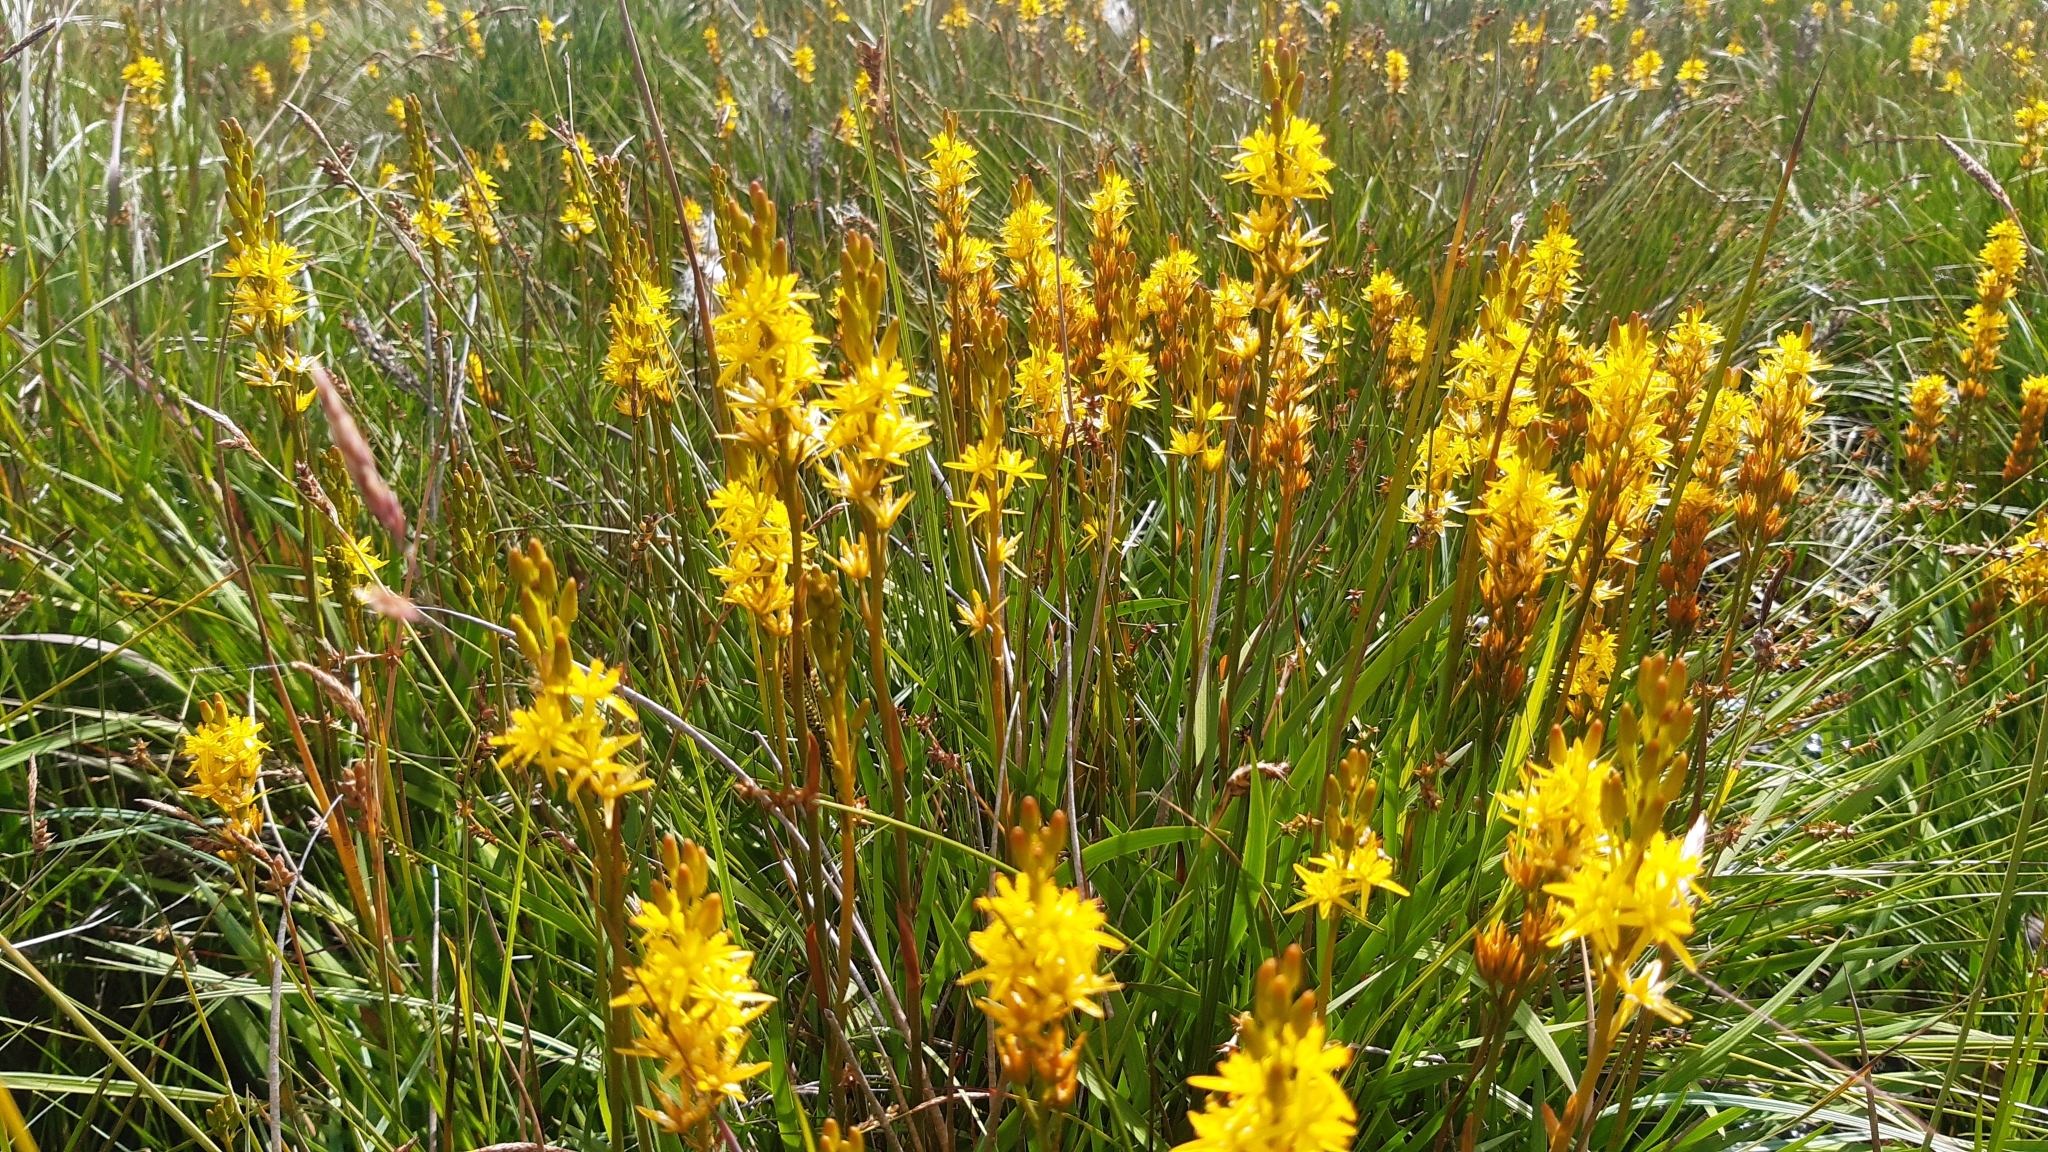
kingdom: Plantae
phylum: Tracheophyta
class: Liliopsida
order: Dioscoreales
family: Nartheciaceae
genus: Narthecium
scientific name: Narthecium ossifragum
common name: Bog asphodel
